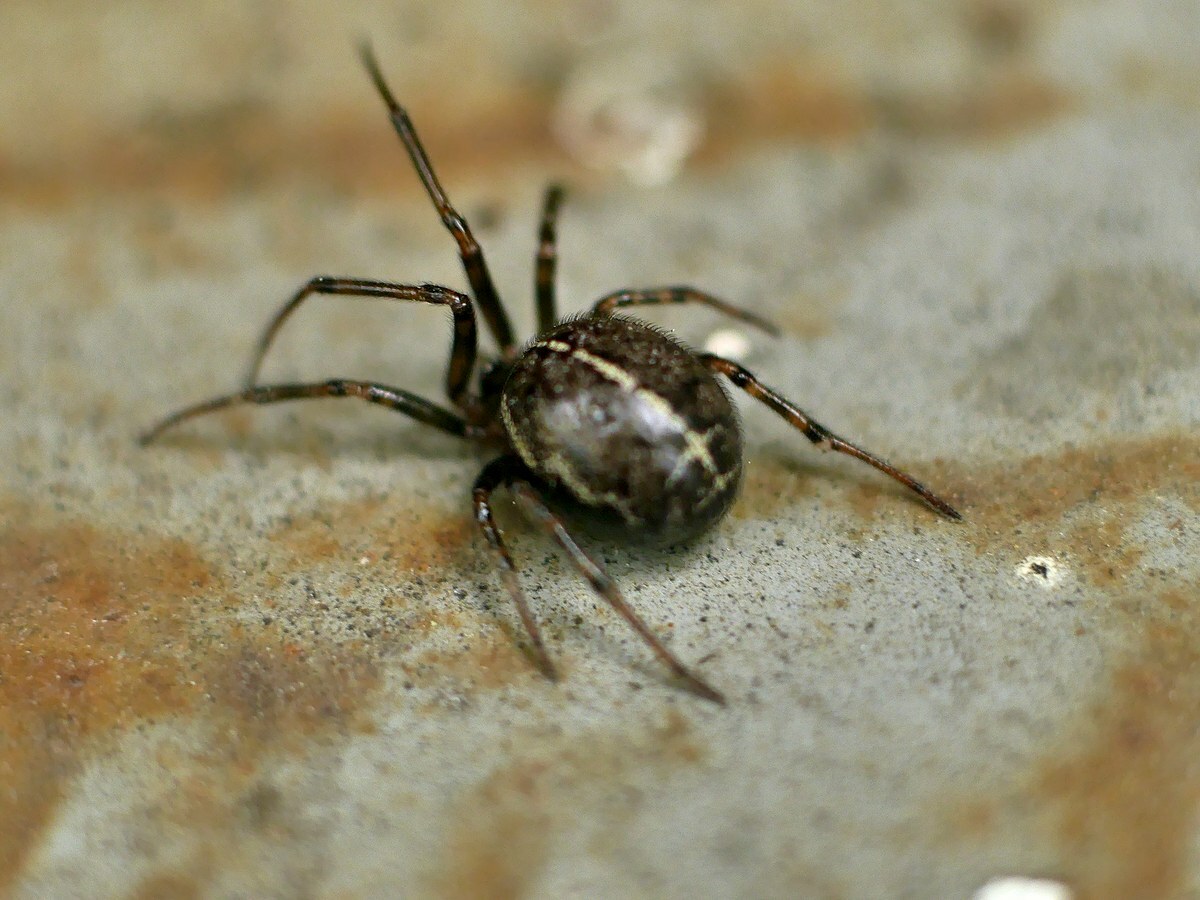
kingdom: Animalia
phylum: Arthropoda
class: Arachnida
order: Araneae
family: Theridiidae
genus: Steatoda
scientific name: Steatoda castanea
